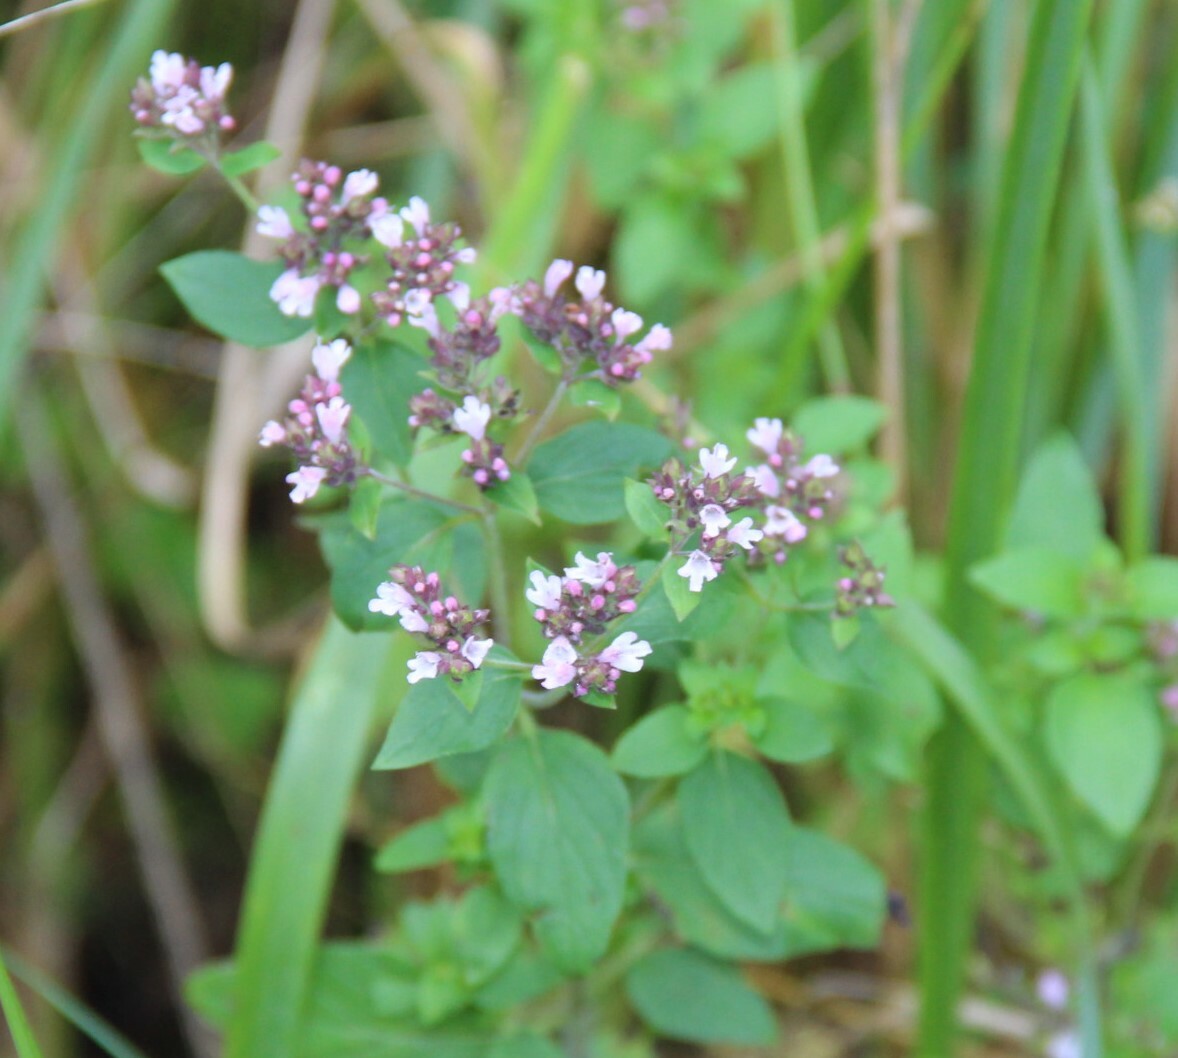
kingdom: Plantae
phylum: Tracheophyta
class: Magnoliopsida
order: Lamiales
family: Lamiaceae
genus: Origanum
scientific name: Origanum vulgare
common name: Wild marjoram
